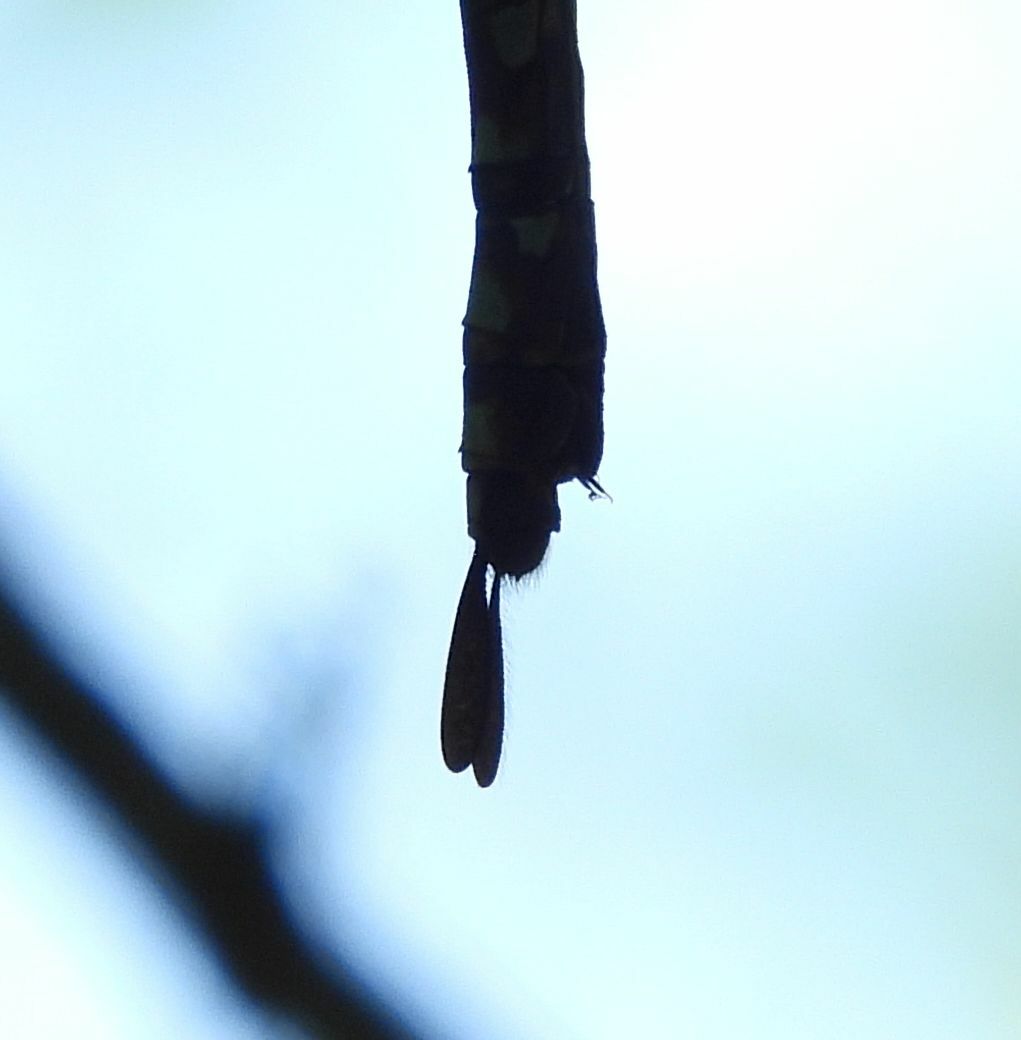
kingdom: Animalia
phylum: Arthropoda
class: Insecta
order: Odonata
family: Aeshnidae
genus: Aeshna
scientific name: Aeshna canadensis
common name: Canada darner
